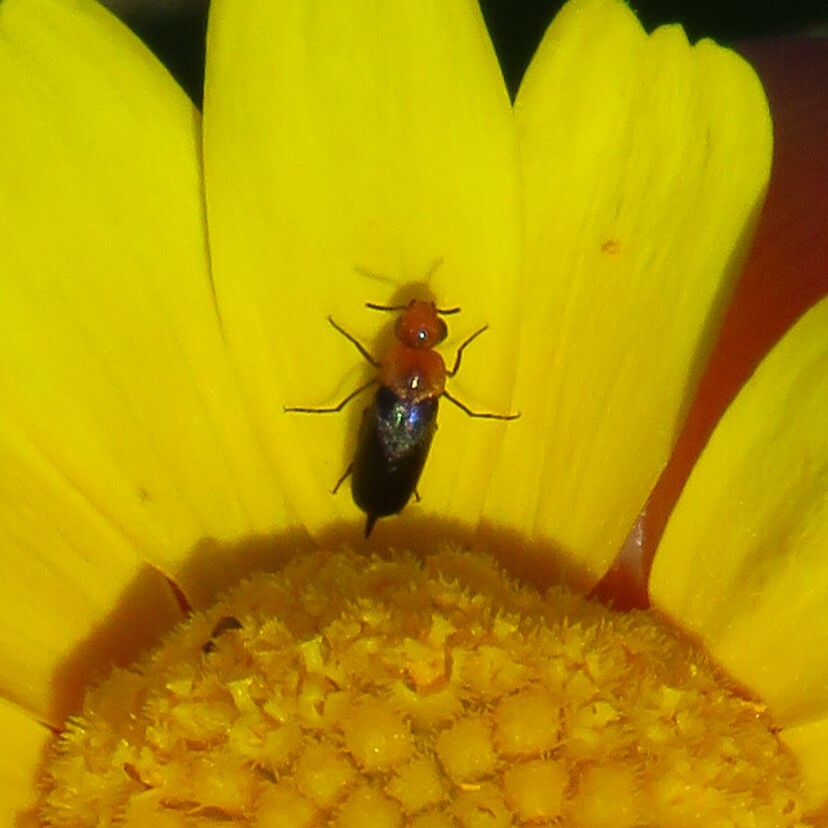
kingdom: Animalia
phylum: Arthropoda
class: Insecta
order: Coleoptera
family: Mordellidae
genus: Mordellistena
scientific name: Mordellistena cervicalis
